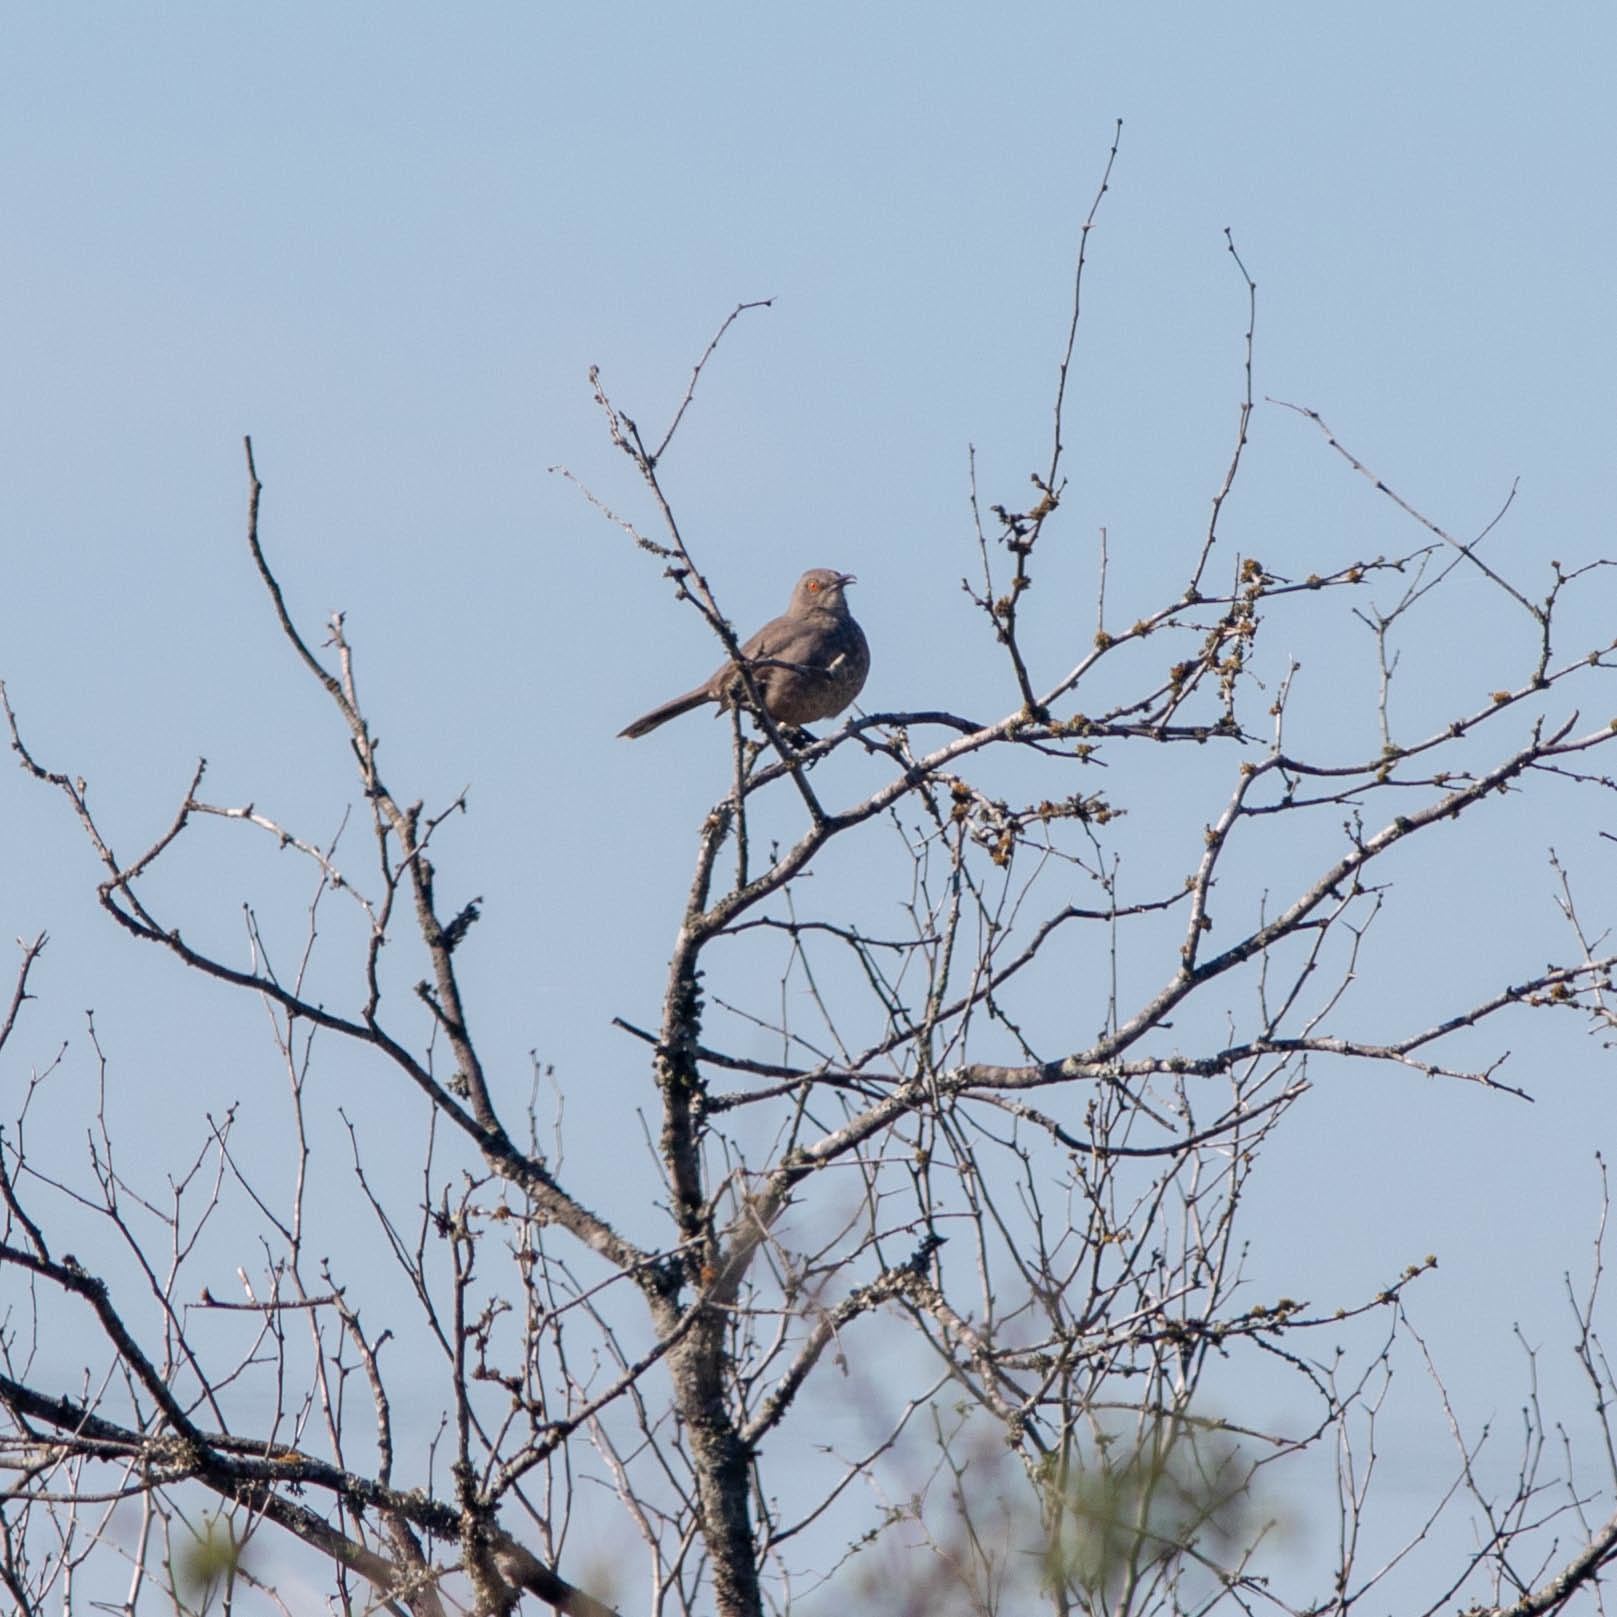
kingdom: Animalia
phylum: Chordata
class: Aves
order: Passeriformes
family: Mimidae
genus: Toxostoma
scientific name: Toxostoma curvirostre
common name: Curve-billed thrasher
